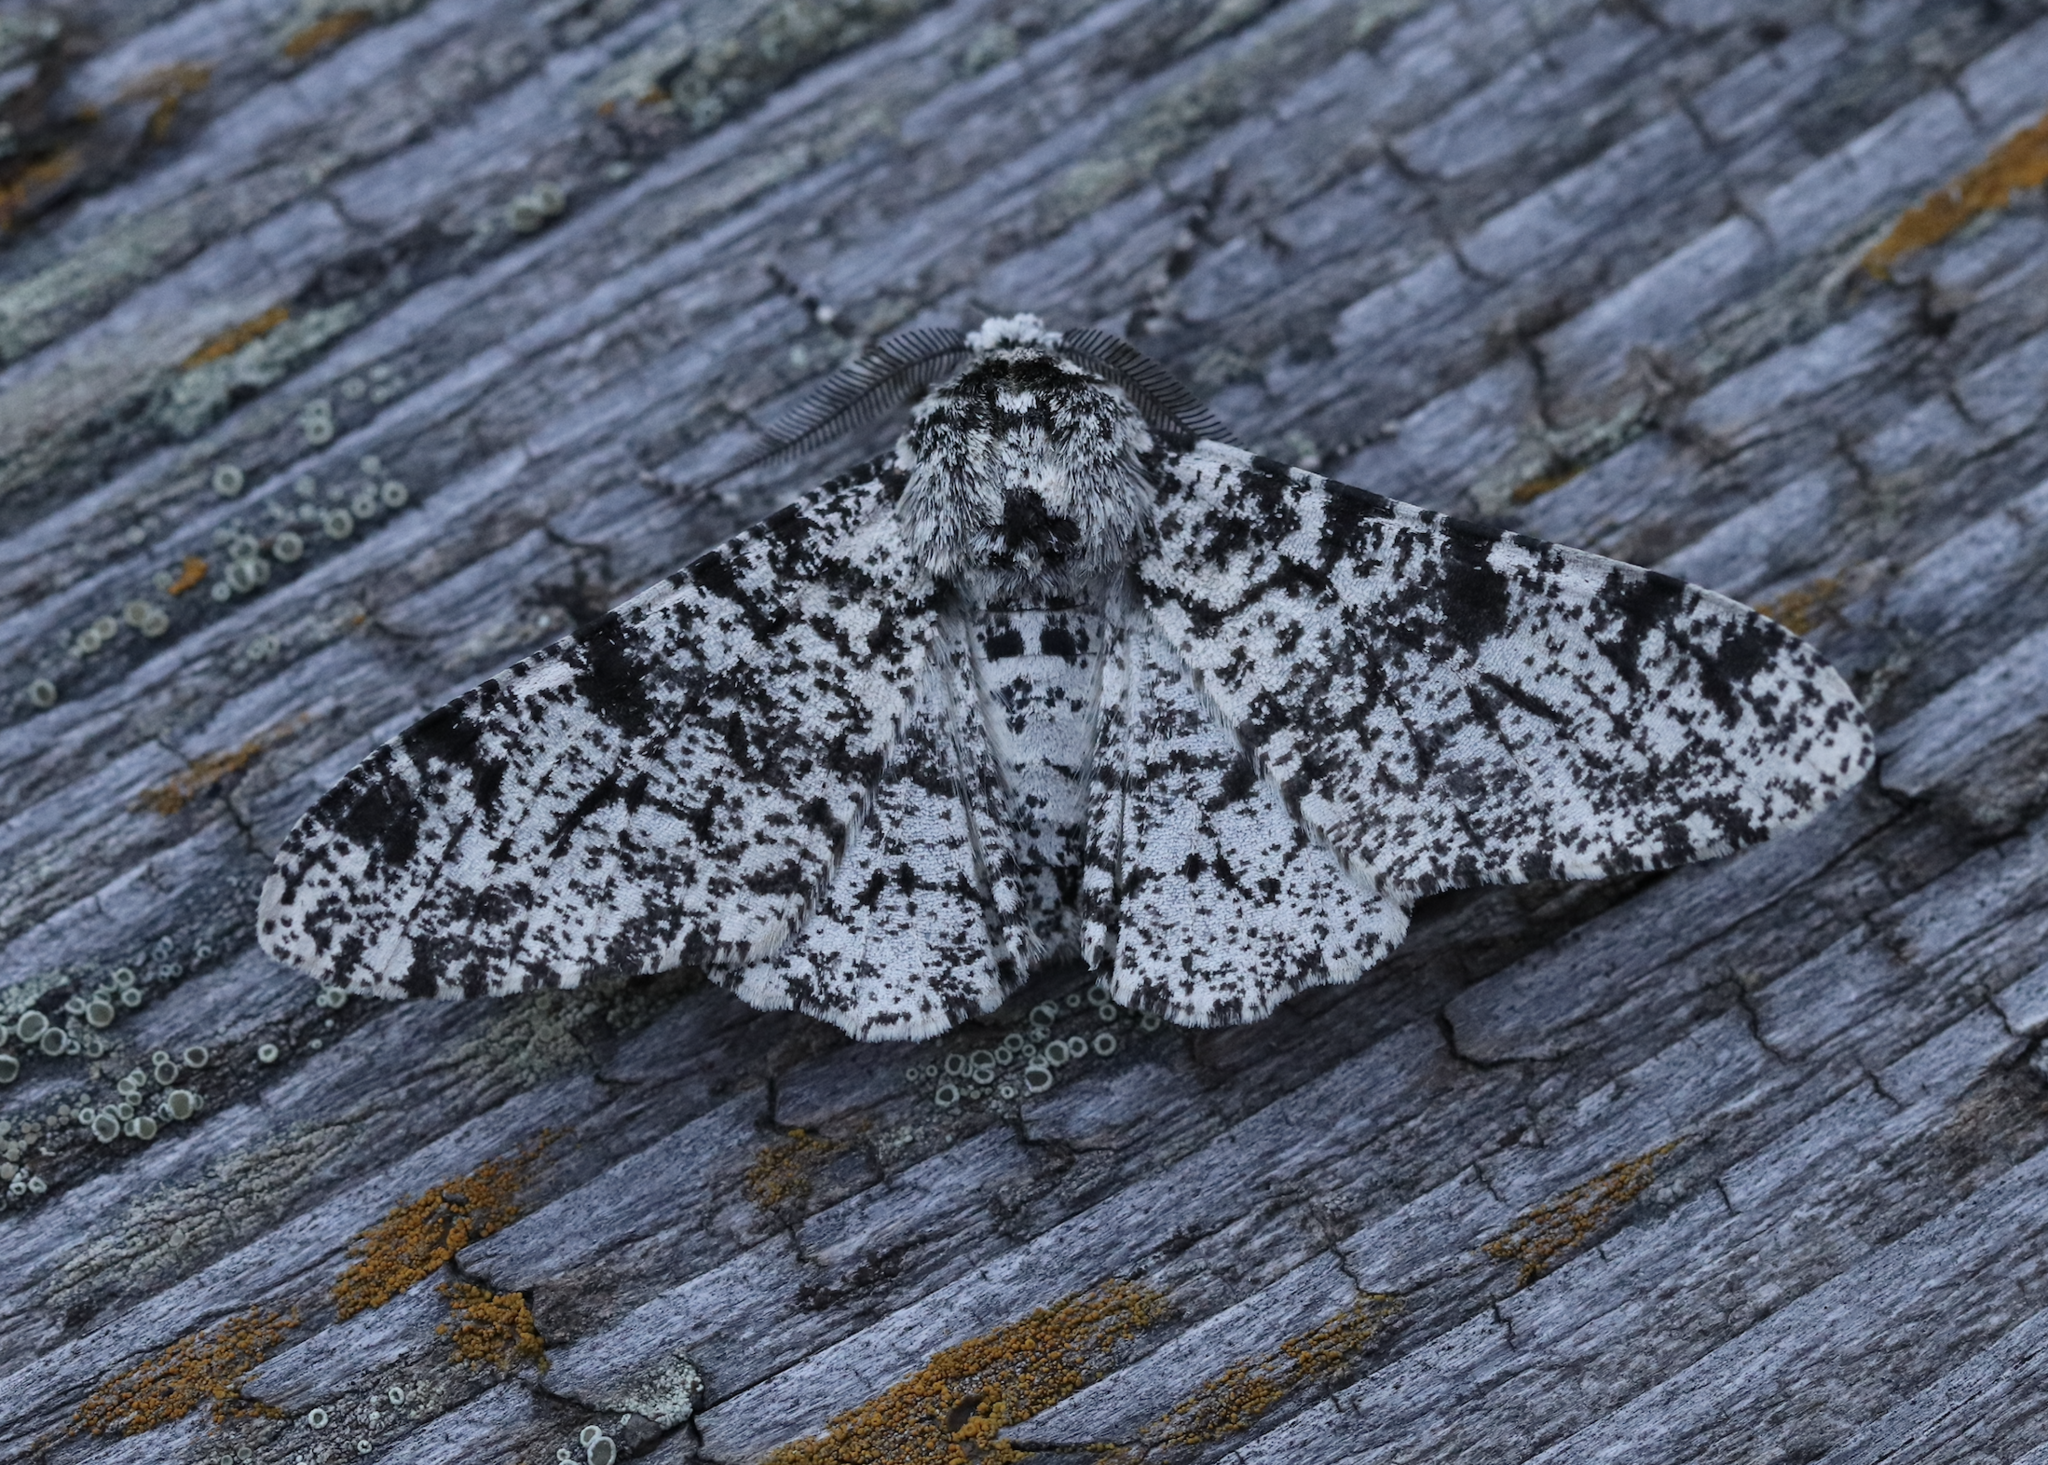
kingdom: Animalia
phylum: Arthropoda
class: Insecta
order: Lepidoptera
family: Geometridae
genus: Biston
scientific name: Biston betularia
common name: Peppered moth
